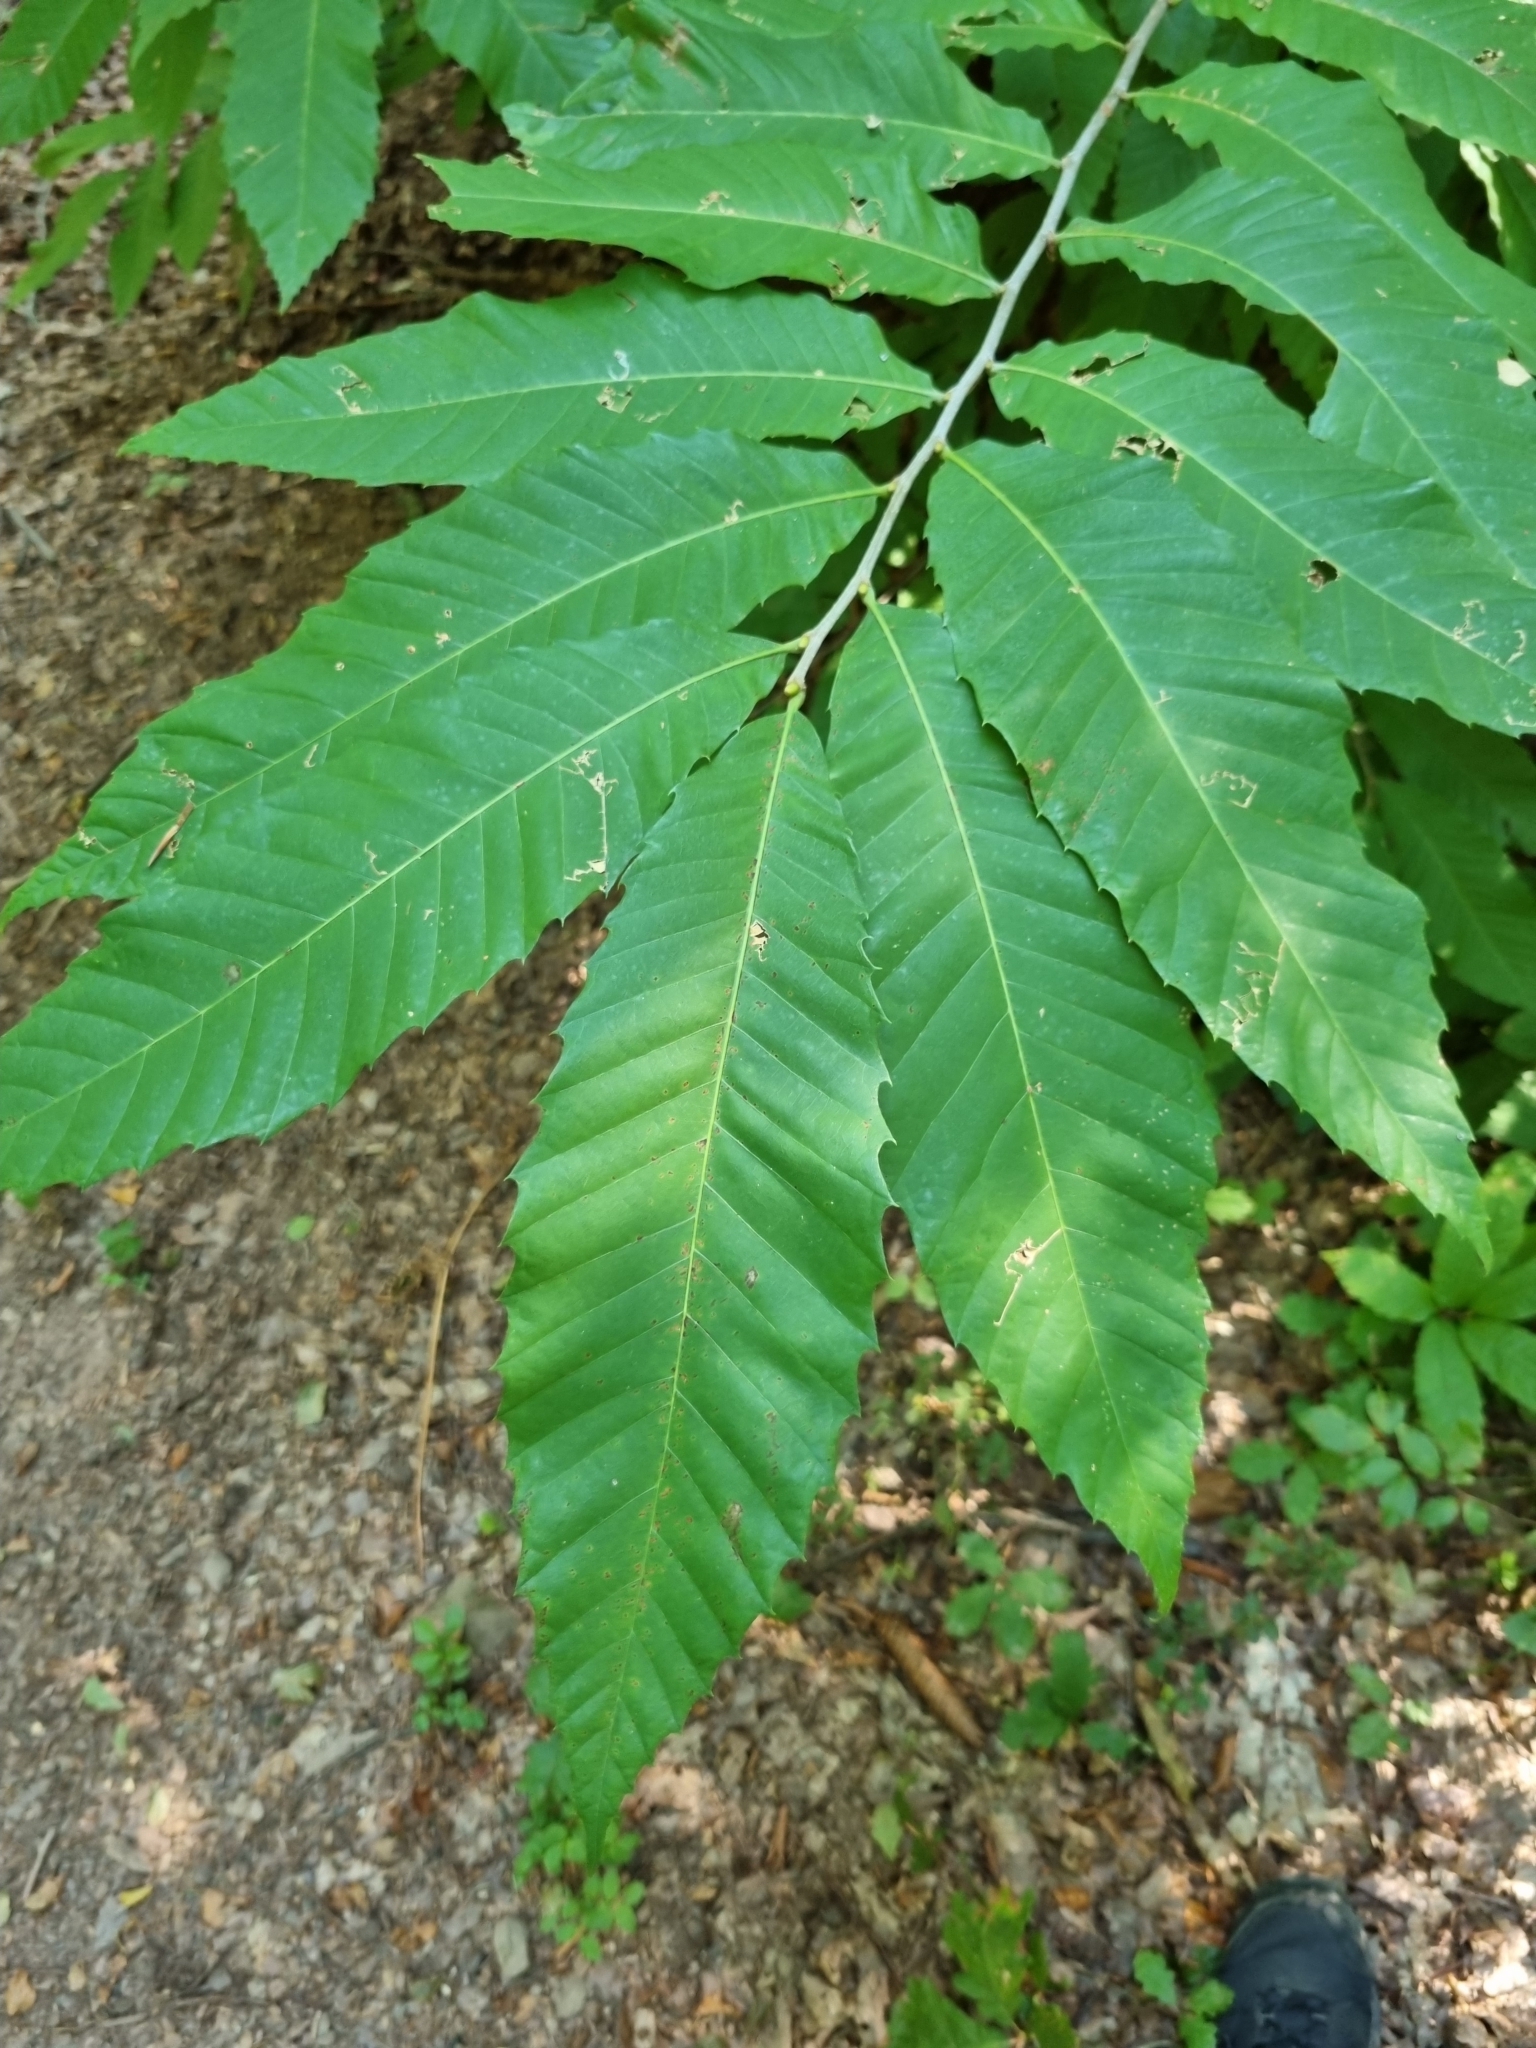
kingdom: Plantae
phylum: Tracheophyta
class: Magnoliopsida
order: Fagales
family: Fagaceae
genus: Castanea
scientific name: Castanea sativa
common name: Sweet chestnut
